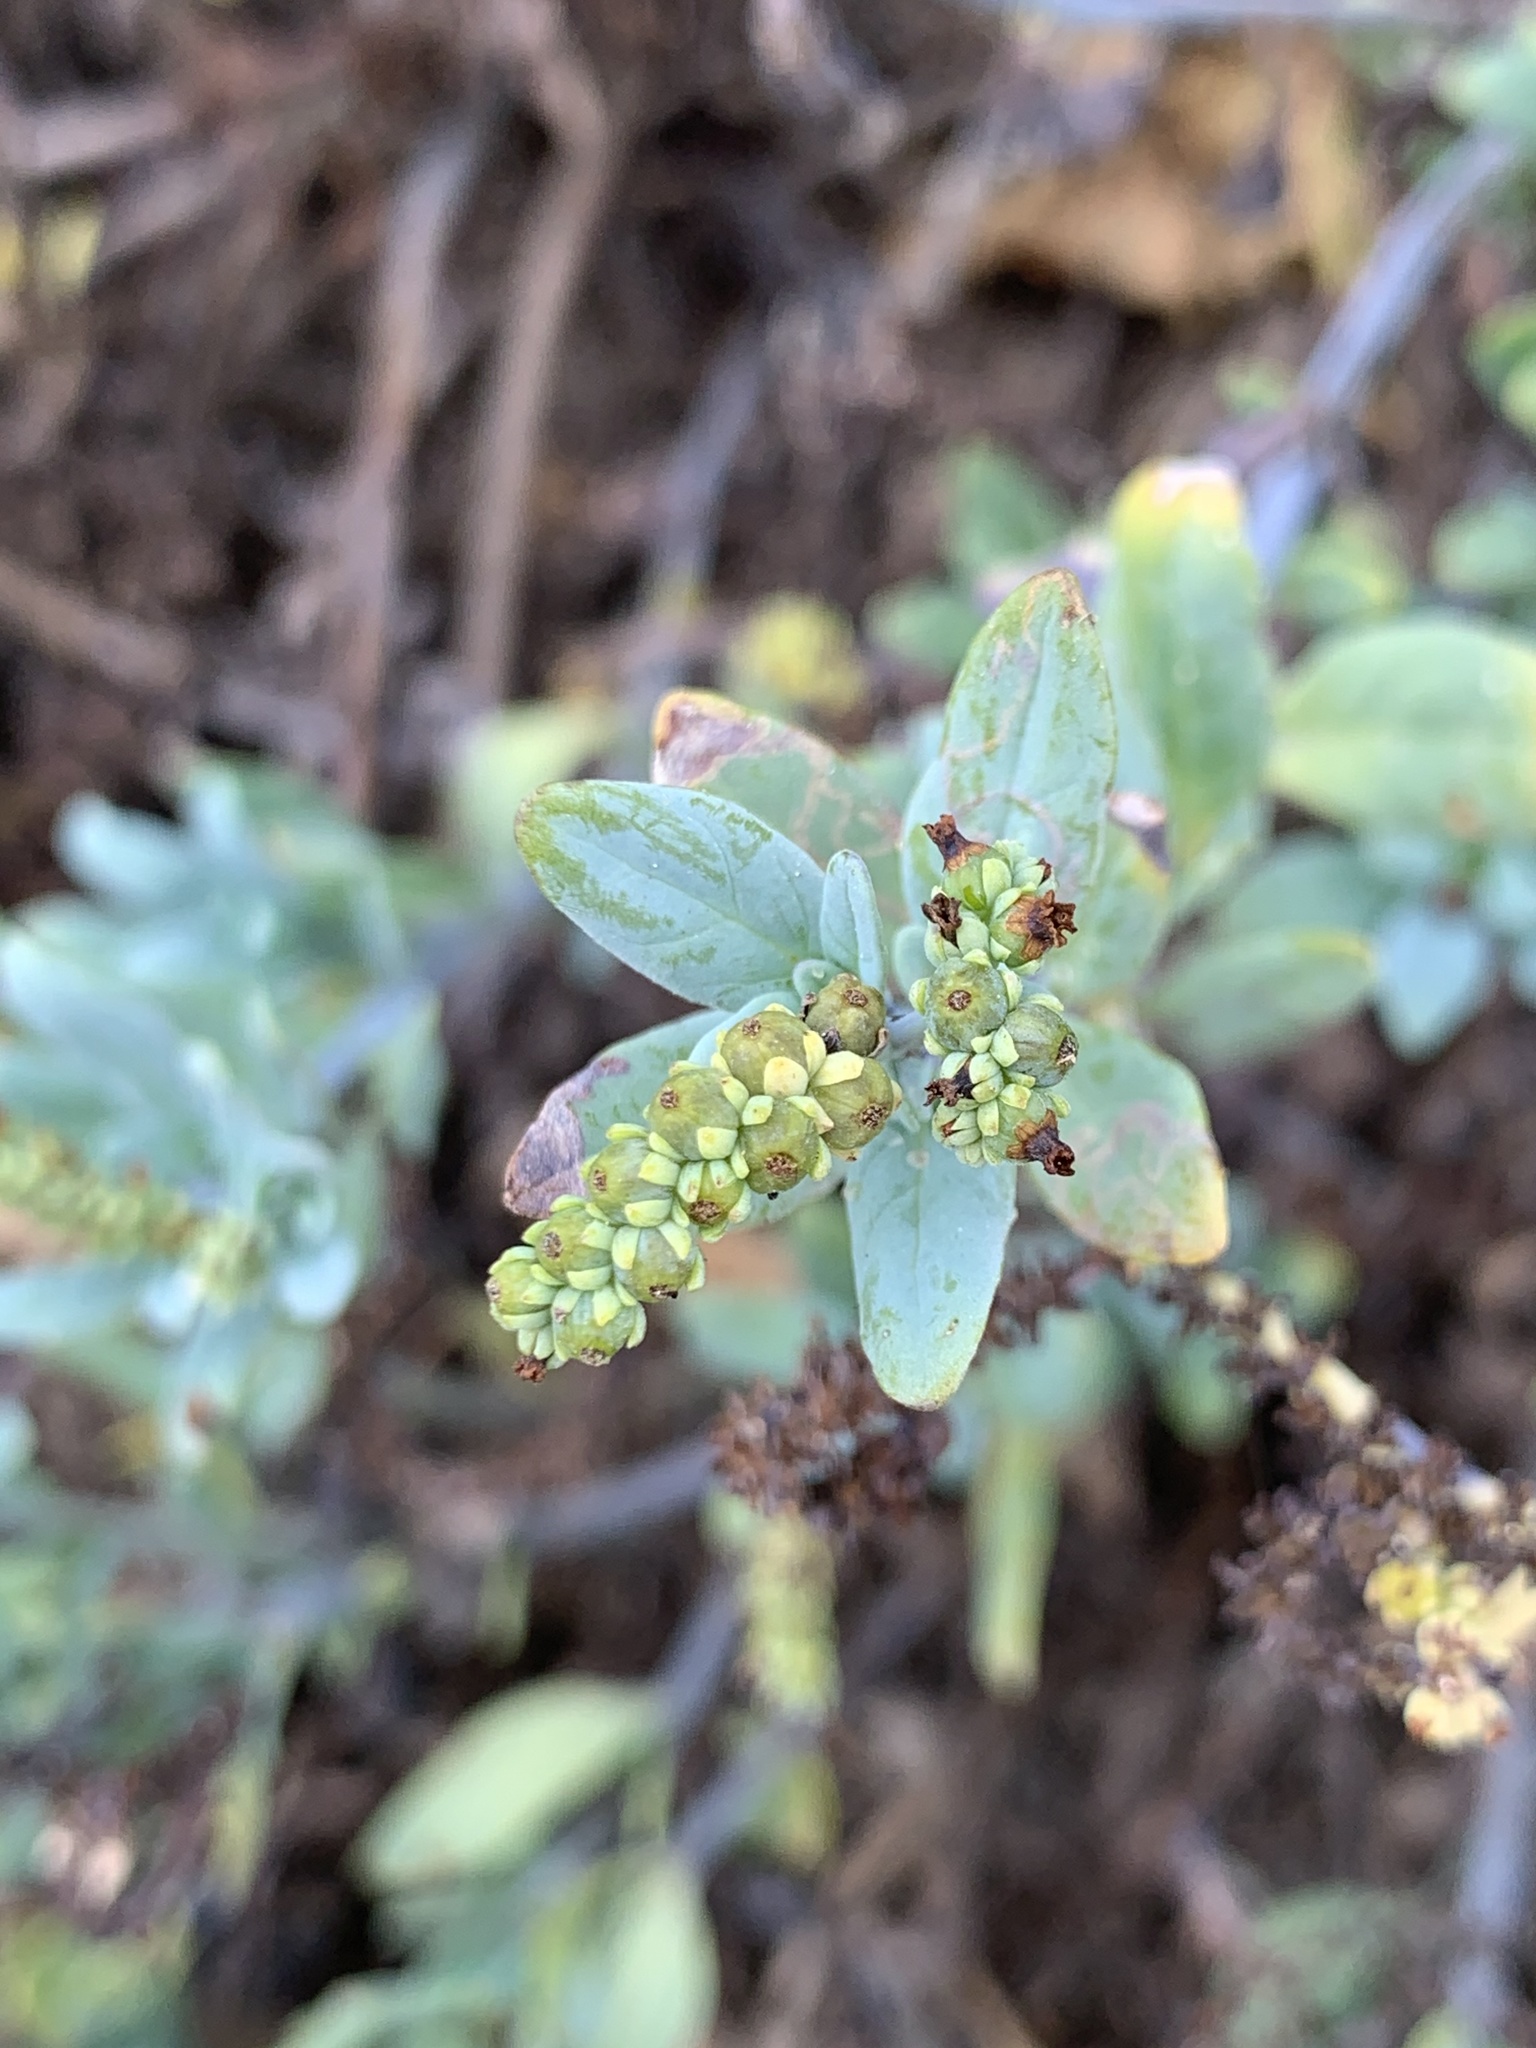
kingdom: Plantae
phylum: Tracheophyta
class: Magnoliopsida
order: Boraginales
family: Heliotropiaceae
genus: Heliotropium
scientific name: Heliotropium curassavicum
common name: Seaside heliotrope
